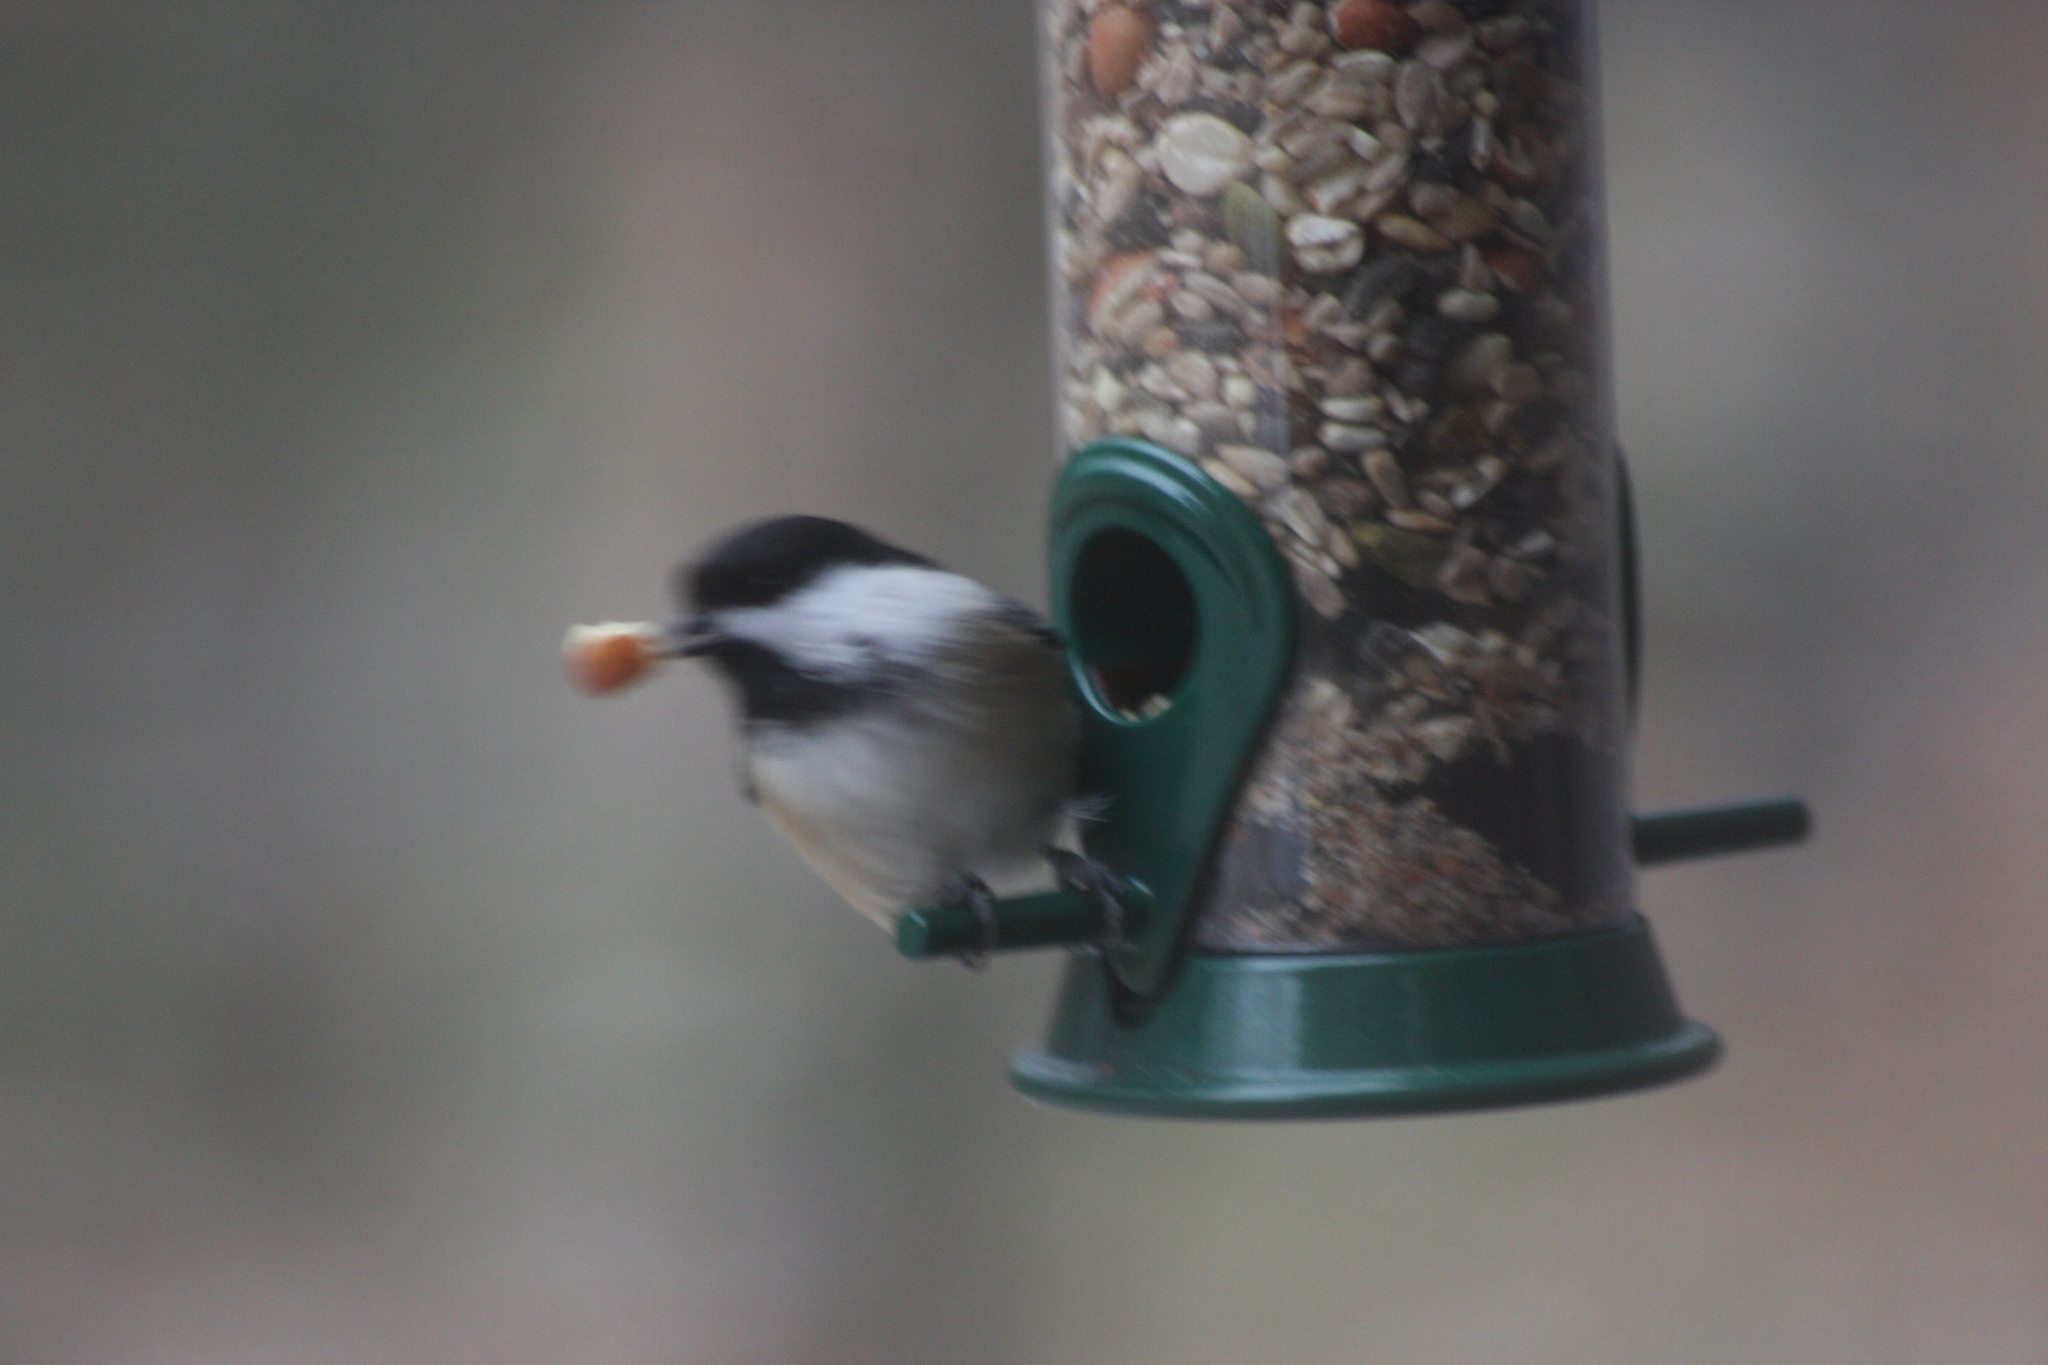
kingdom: Animalia
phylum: Chordata
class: Aves
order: Passeriformes
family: Paridae
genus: Poecile
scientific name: Poecile atricapillus
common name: Black-capped chickadee
